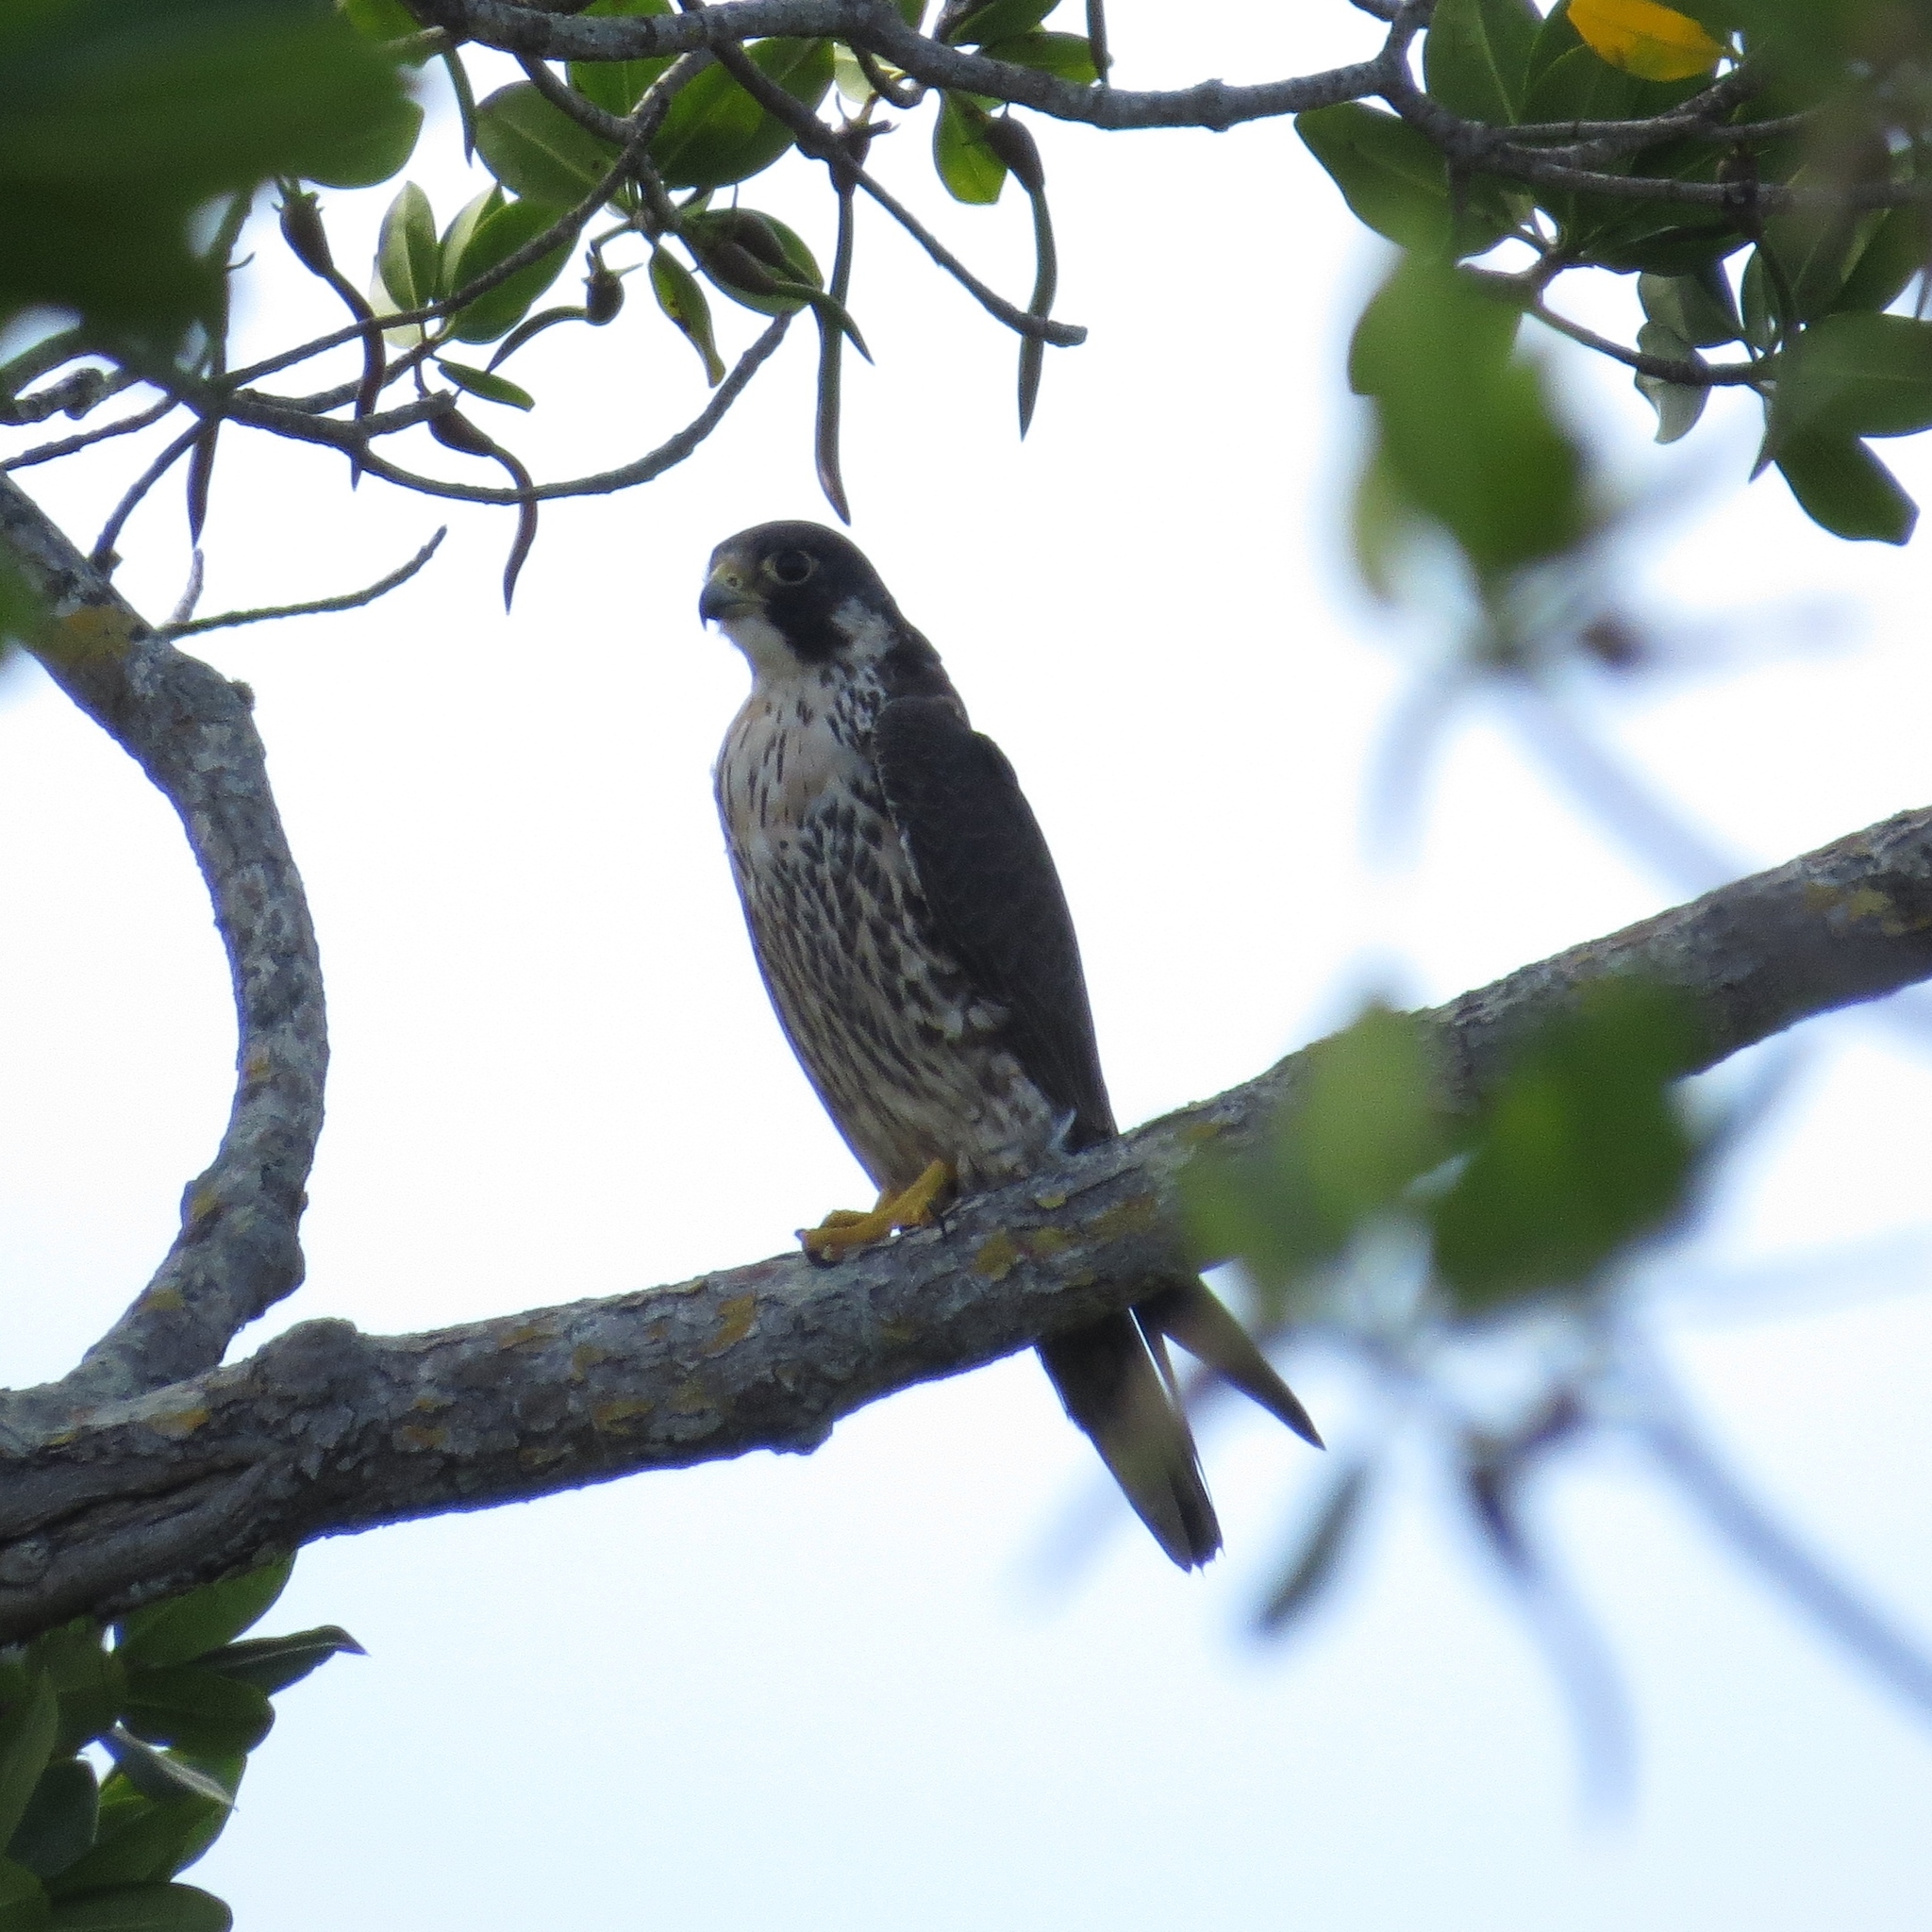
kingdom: Animalia
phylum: Chordata
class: Aves
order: Falconiformes
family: Falconidae
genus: Falco
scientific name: Falco peregrinus
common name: Peregrine falcon
